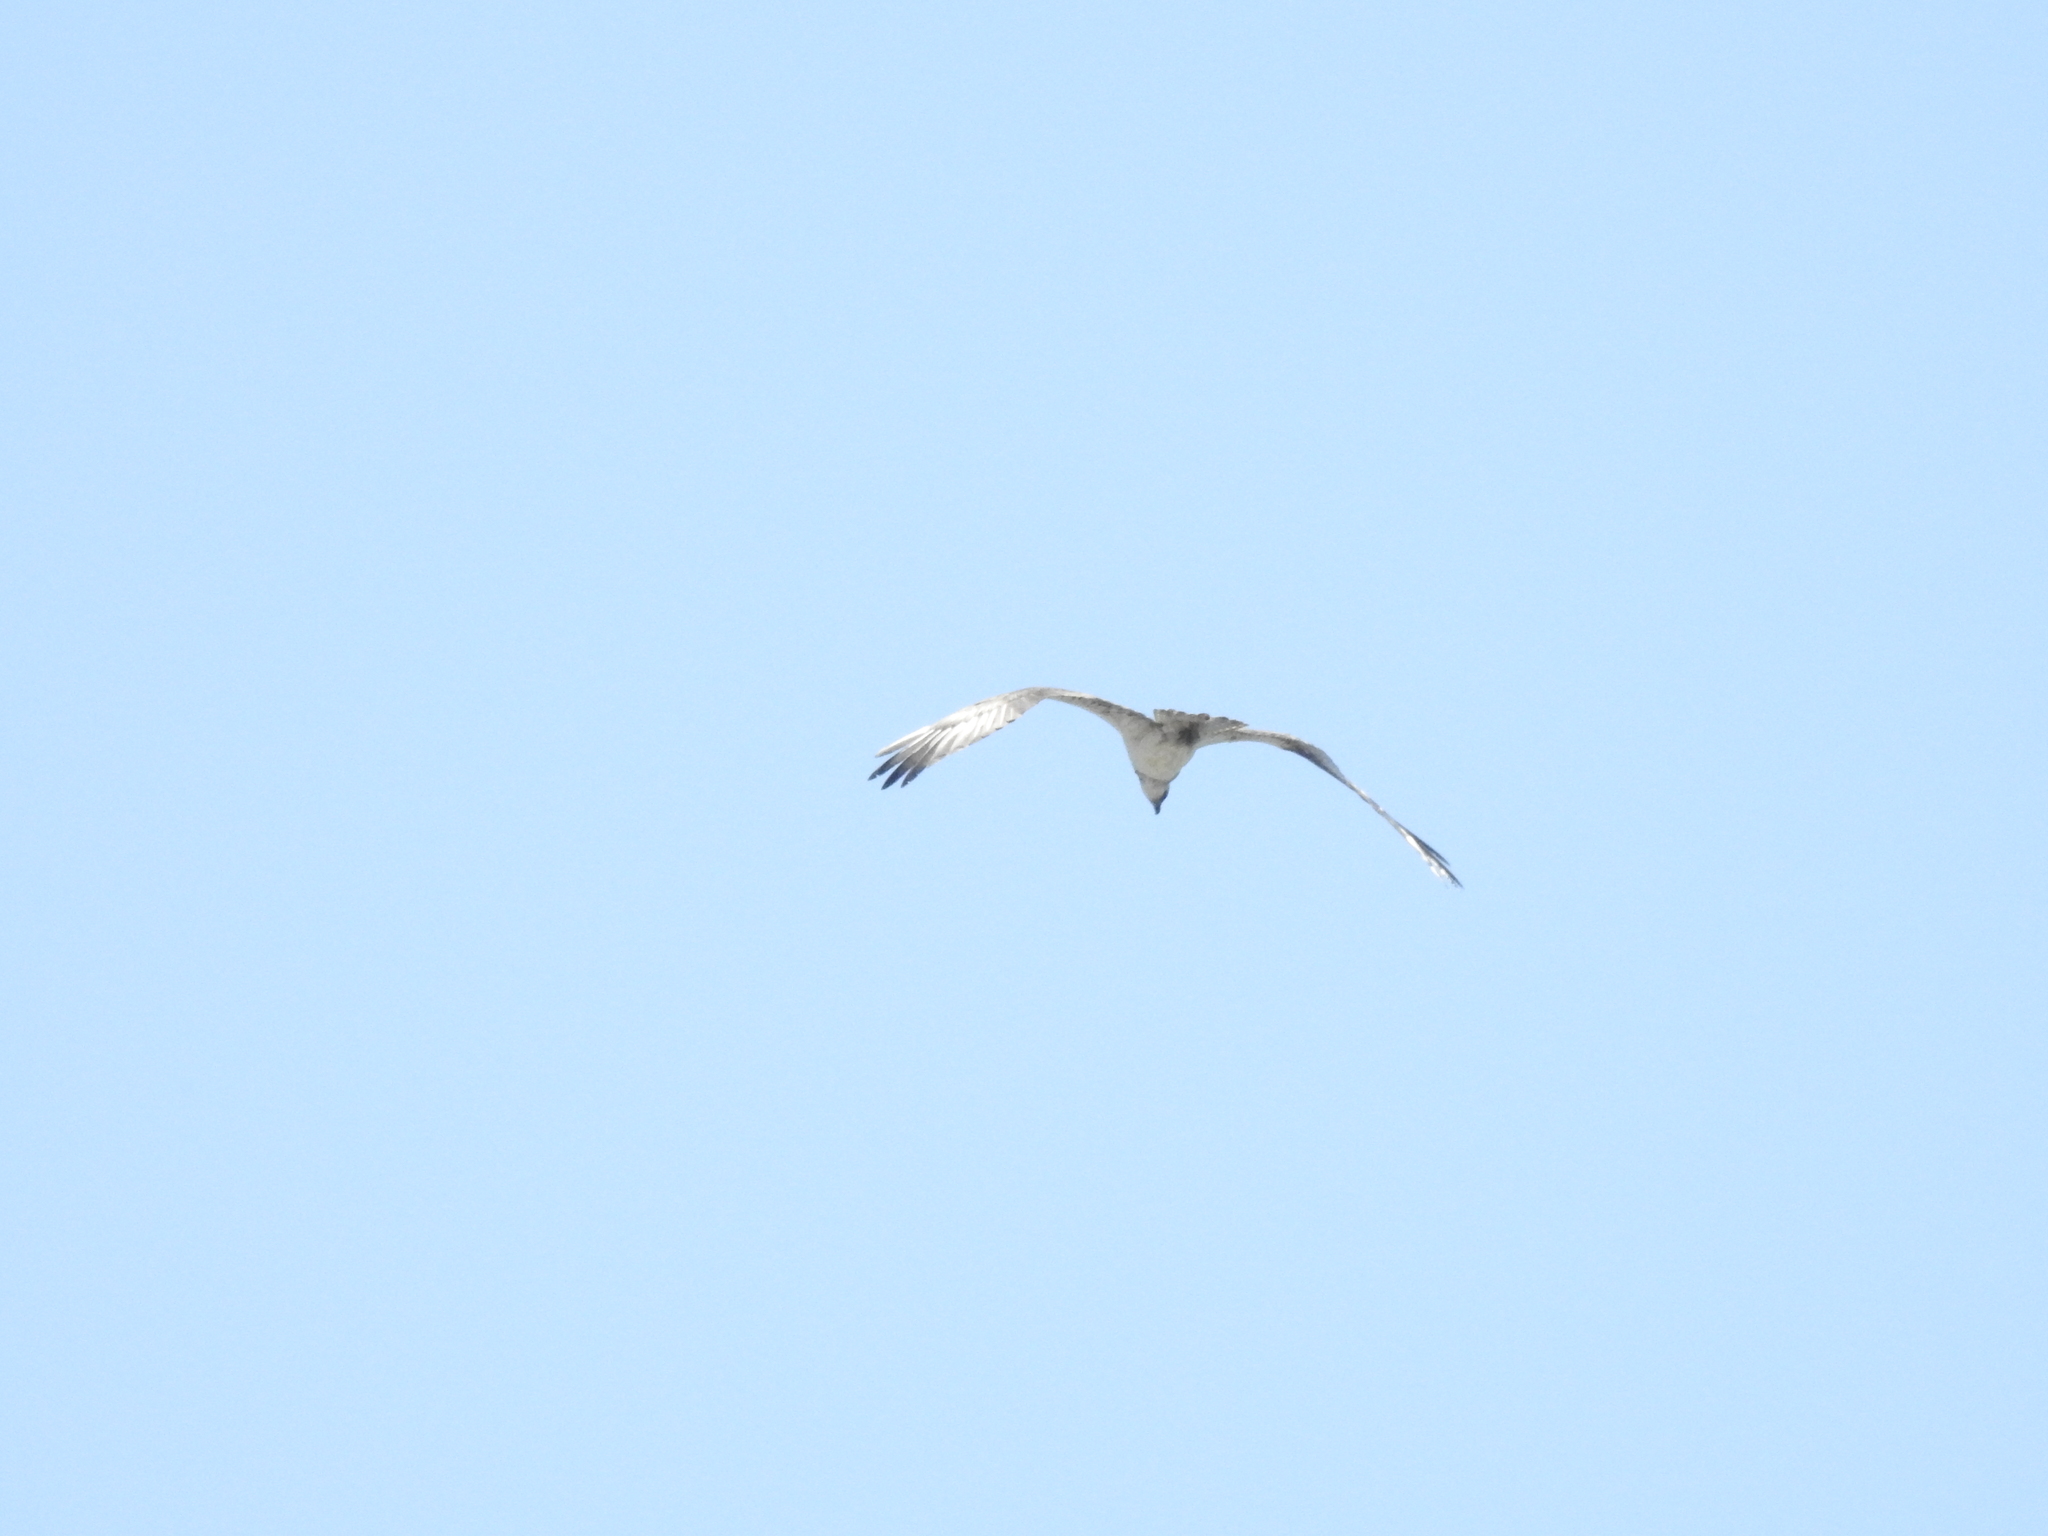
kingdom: Animalia
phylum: Chordata
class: Aves
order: Accipitriformes
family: Pandionidae
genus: Pandion
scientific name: Pandion haliaetus
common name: Osprey
